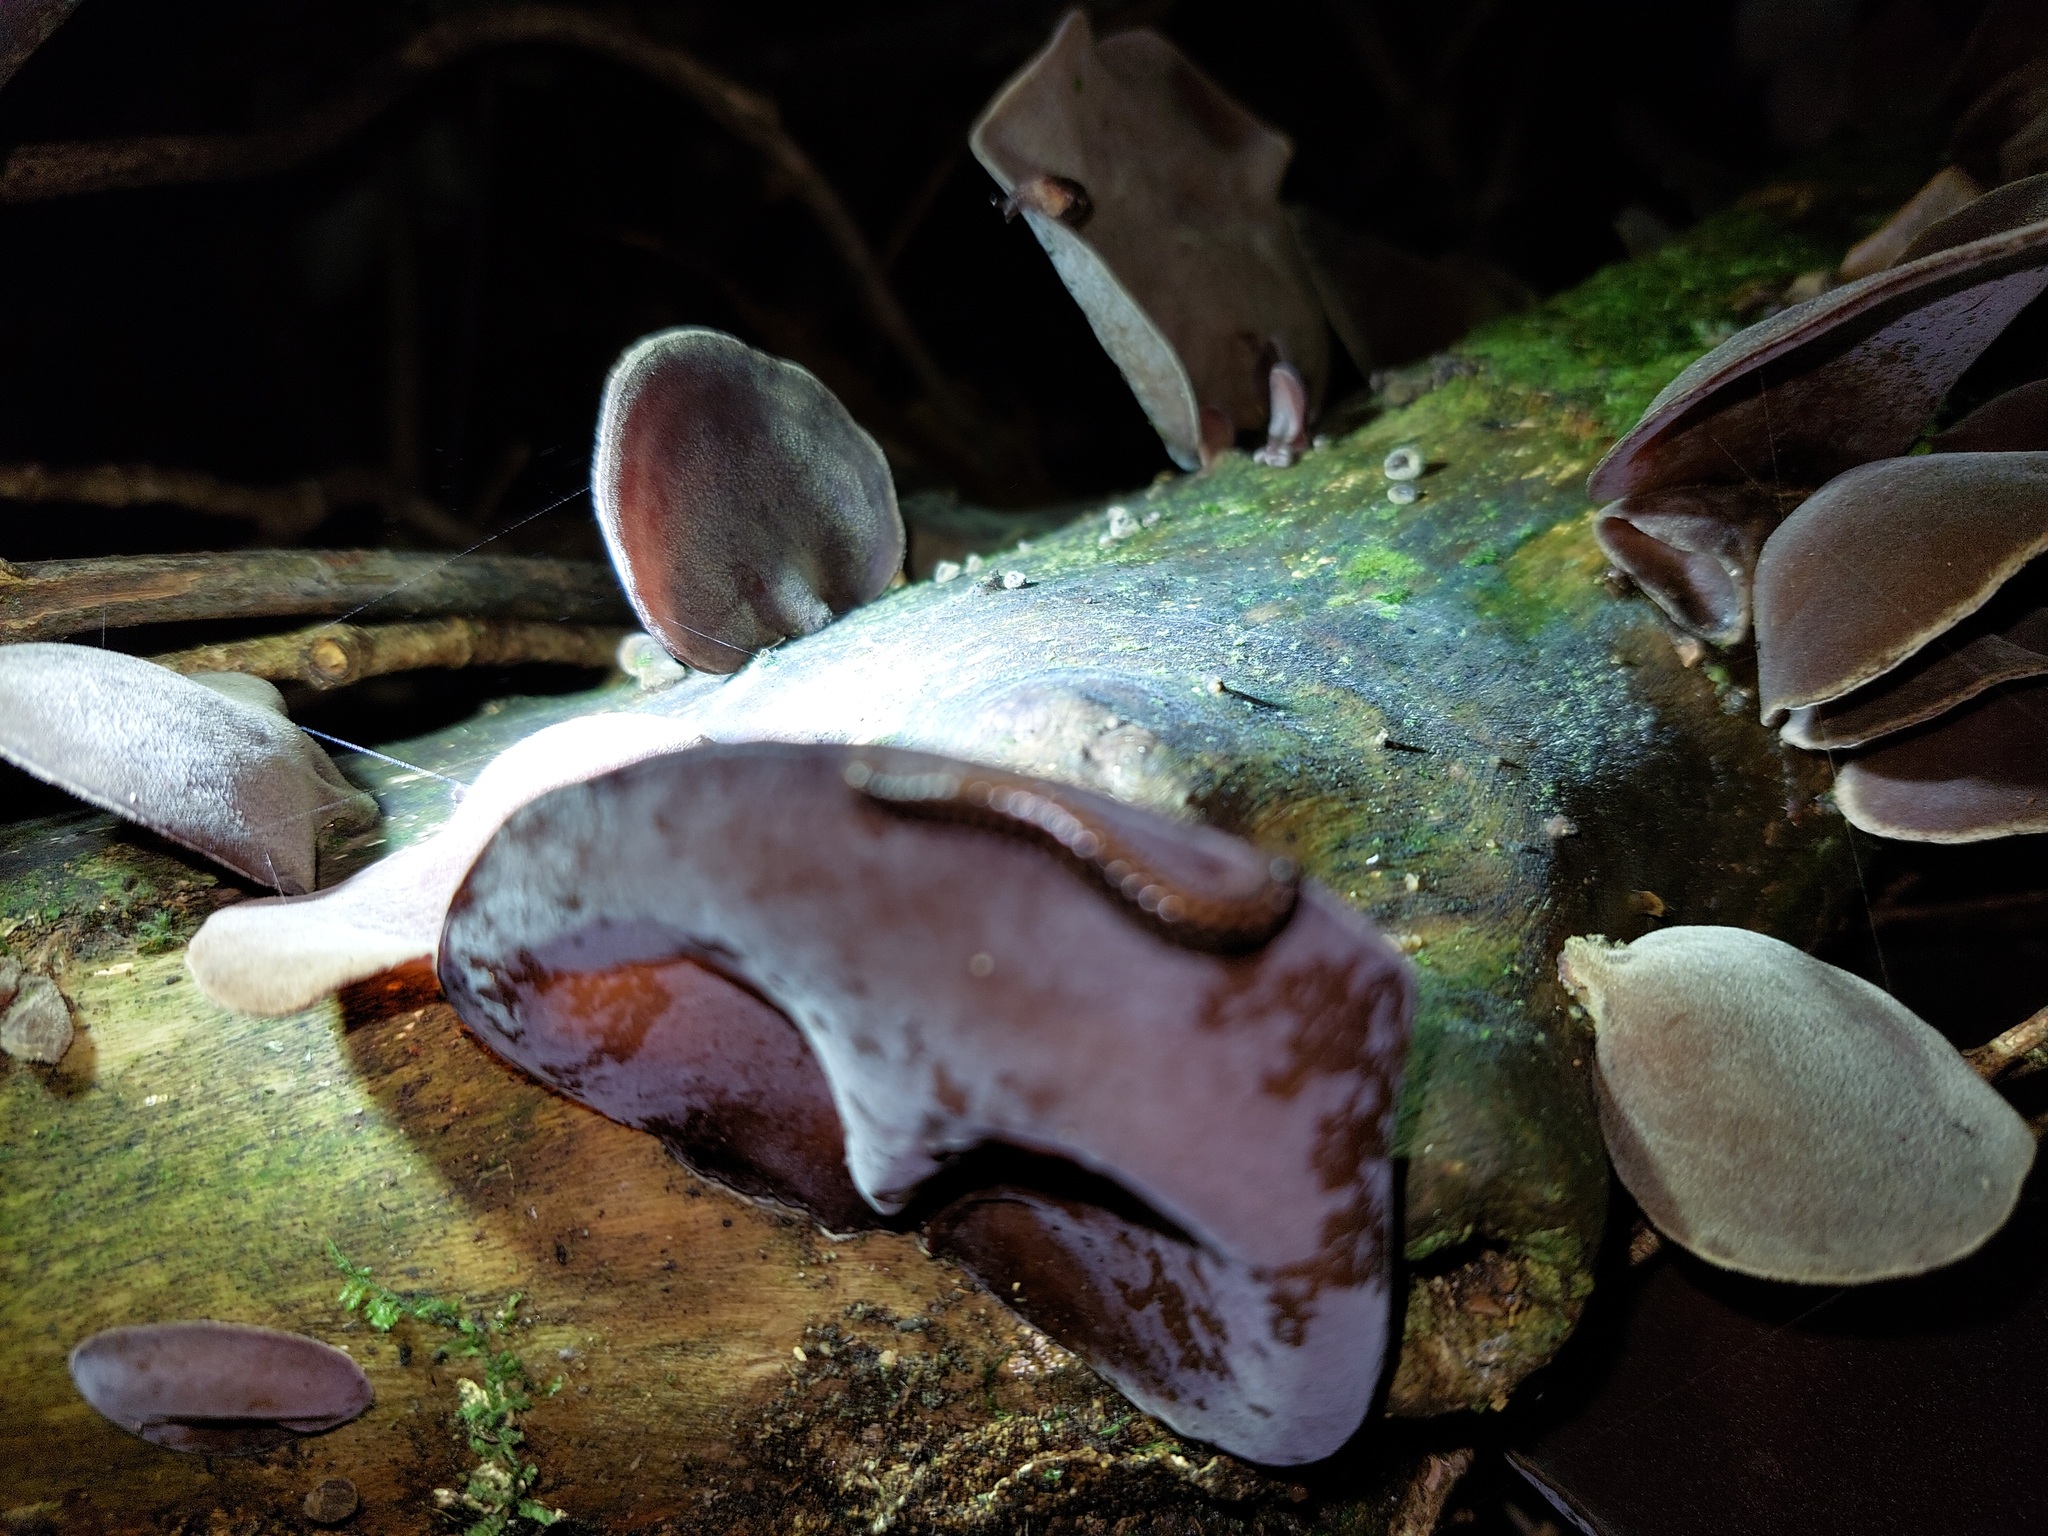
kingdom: Fungi
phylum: Basidiomycota
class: Agaricomycetes
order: Auriculariales
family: Auriculariaceae
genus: Auricularia
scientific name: Auricularia cornea
